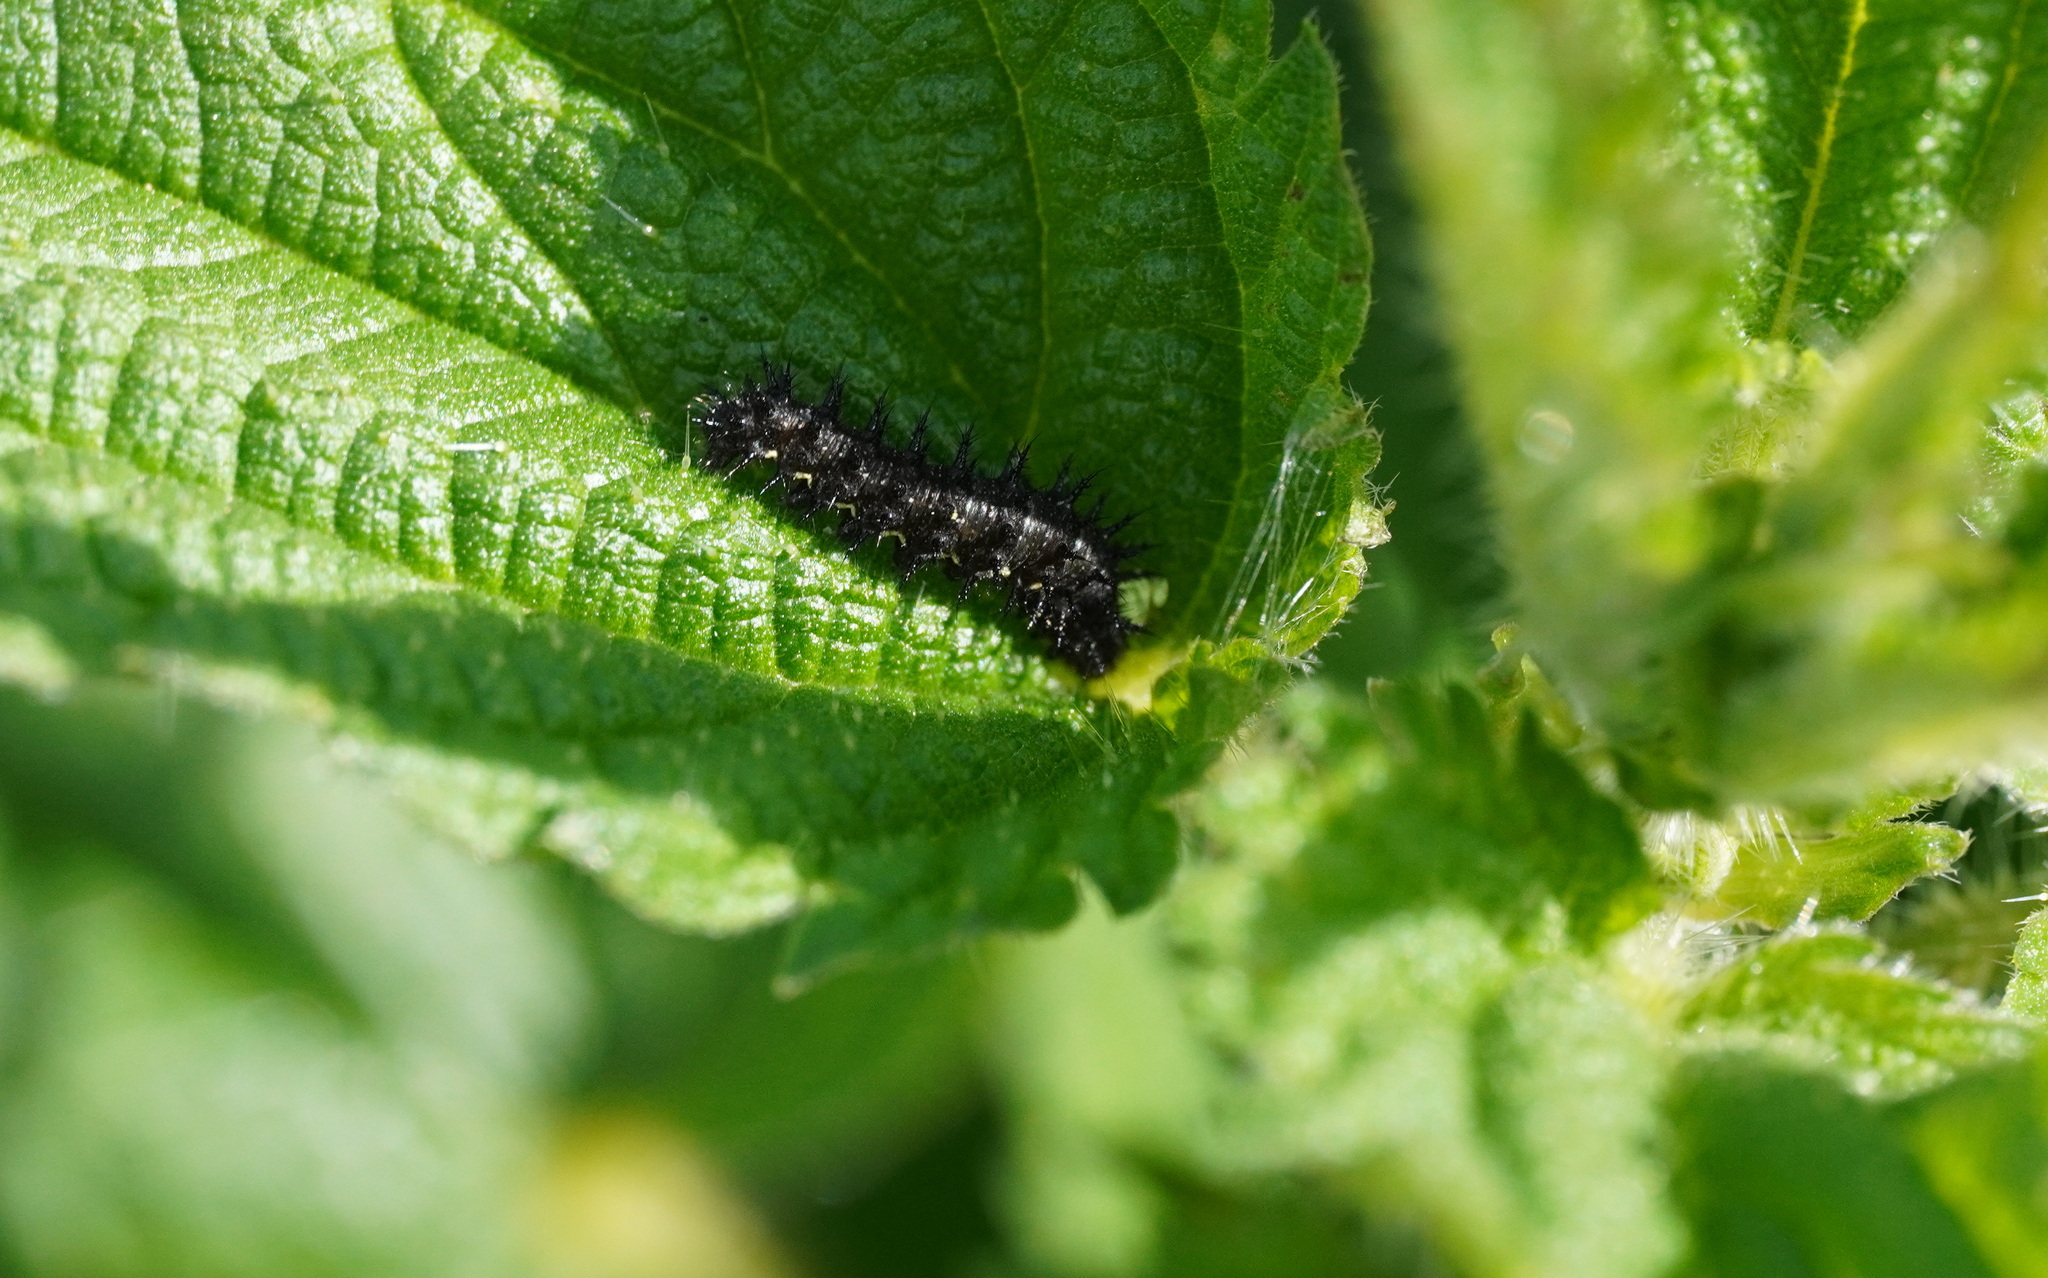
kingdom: Animalia
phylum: Arthropoda
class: Insecta
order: Lepidoptera
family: Nymphalidae
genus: Vanessa
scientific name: Vanessa atalanta
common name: Red admiral
